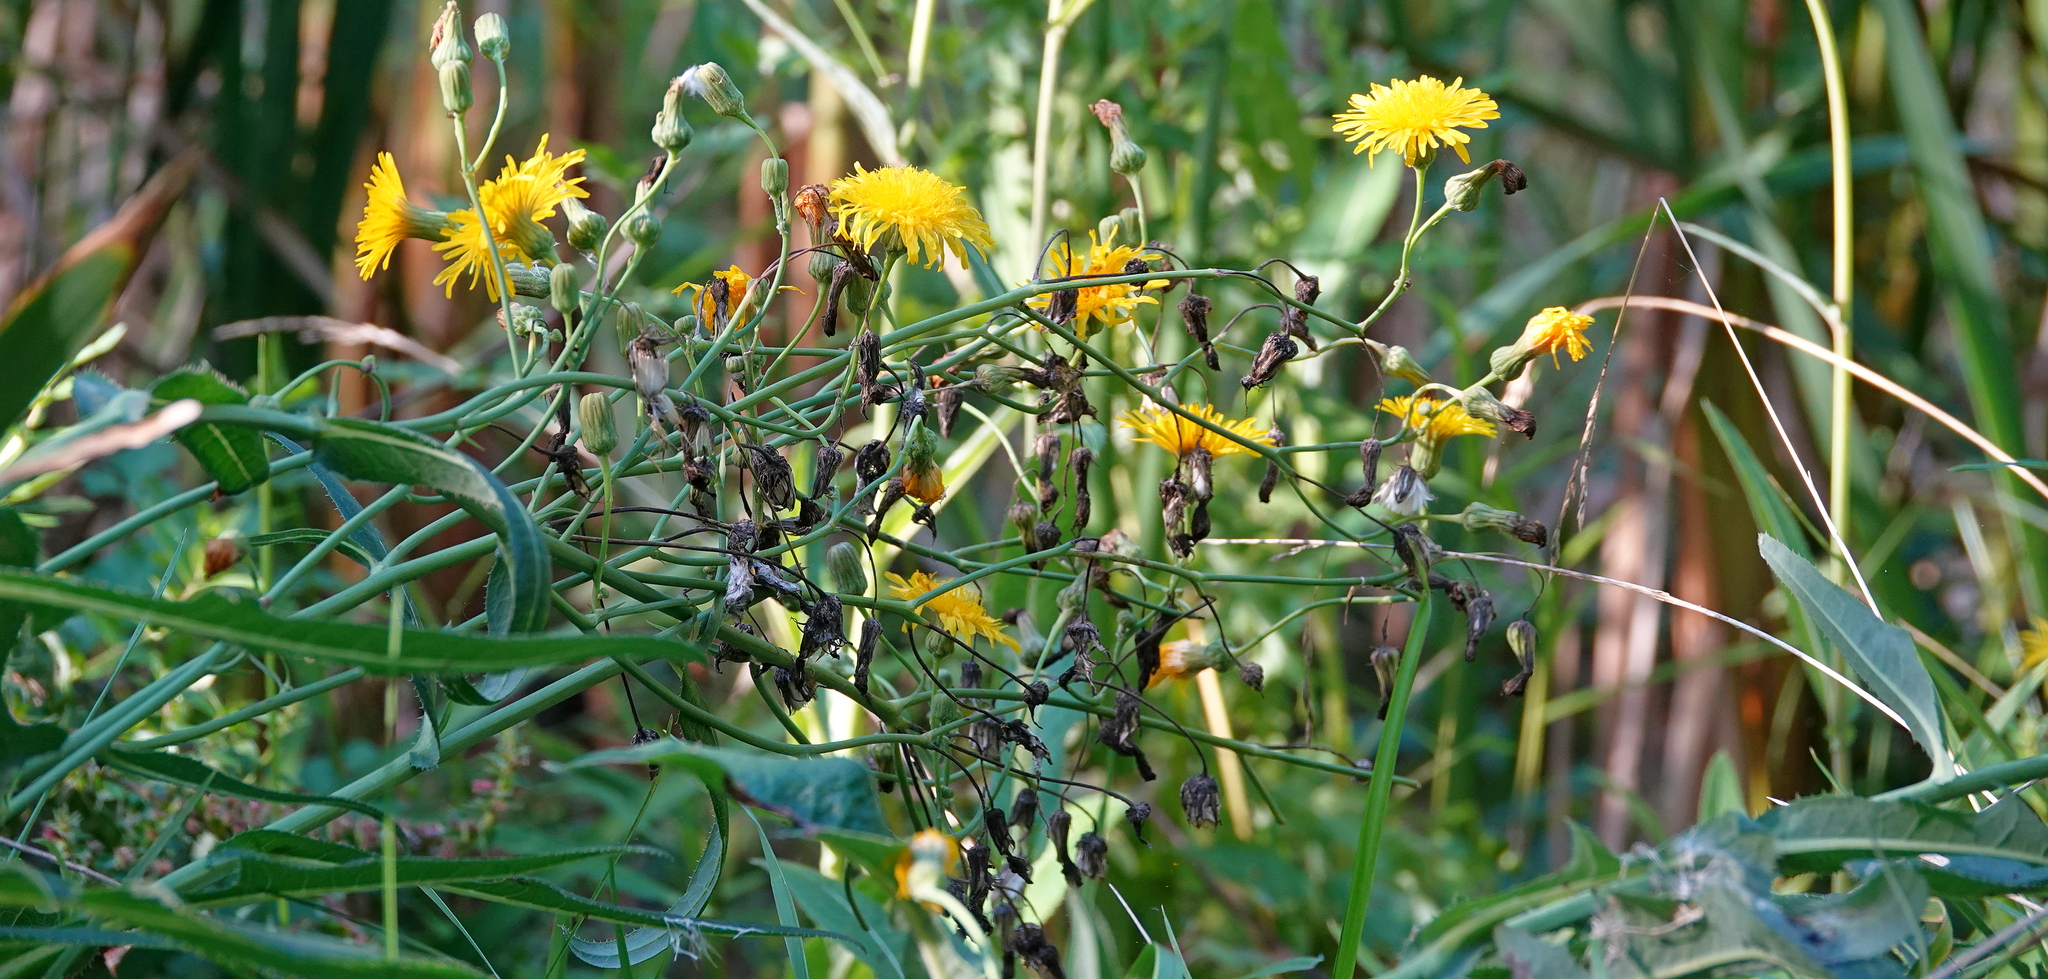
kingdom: Plantae
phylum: Tracheophyta
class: Magnoliopsida
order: Asterales
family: Asteraceae
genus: Sonchus
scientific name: Sonchus arvensis
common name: Perennial sow-thistle
